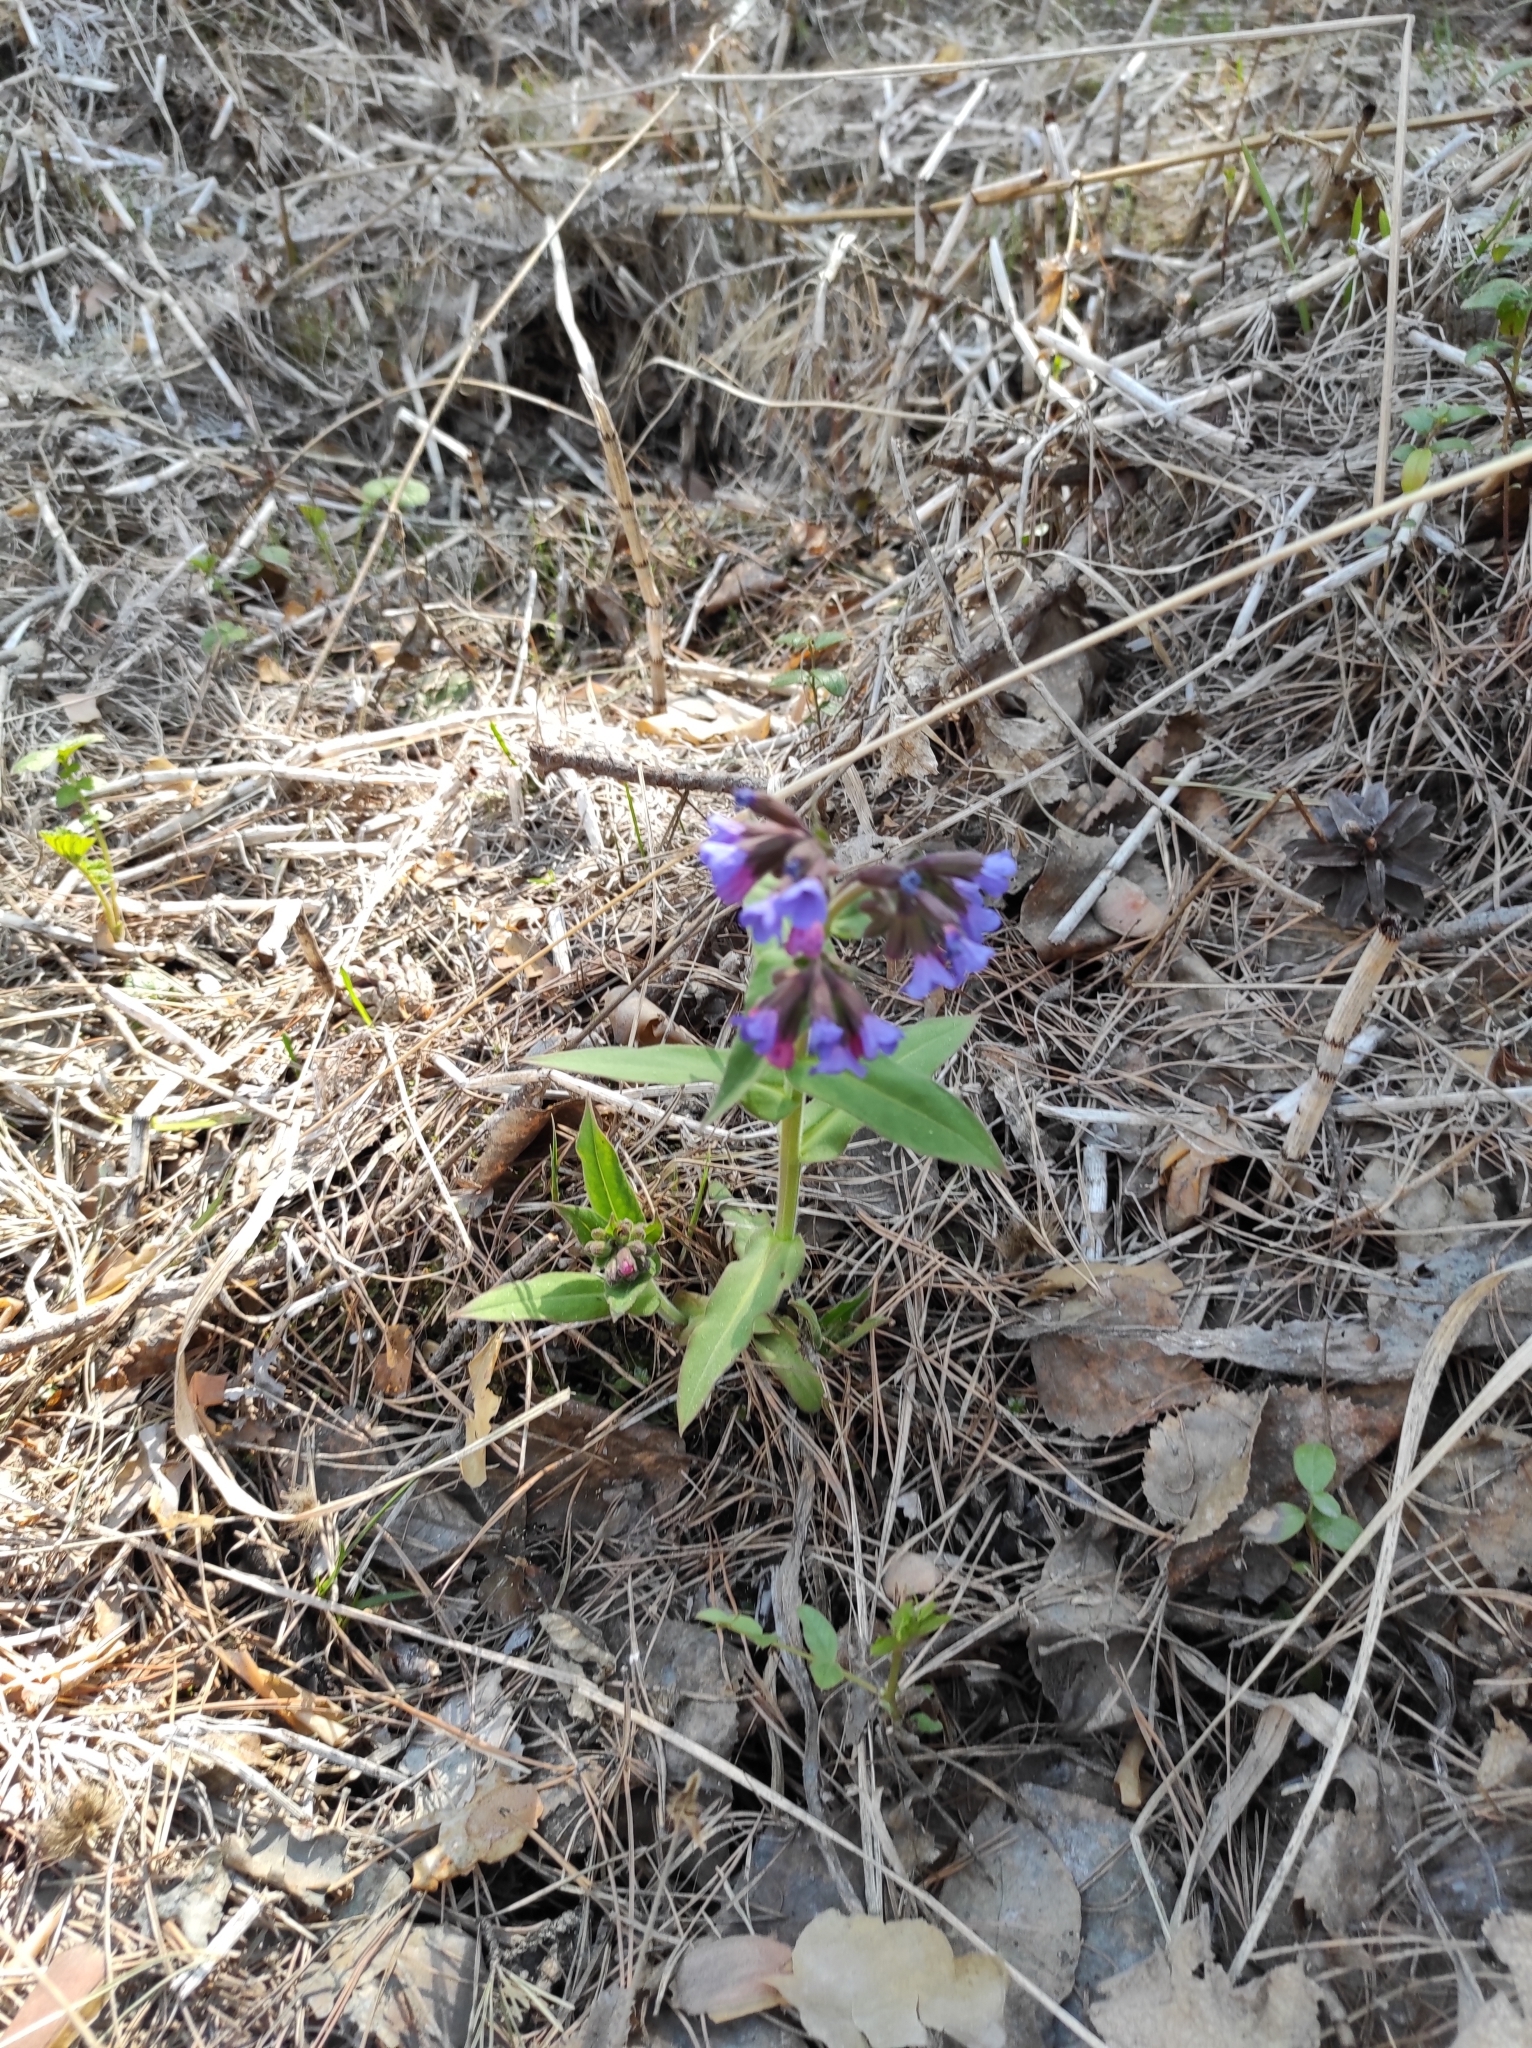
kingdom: Plantae
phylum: Tracheophyta
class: Magnoliopsida
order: Boraginales
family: Boraginaceae
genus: Pulmonaria
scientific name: Pulmonaria mollis
